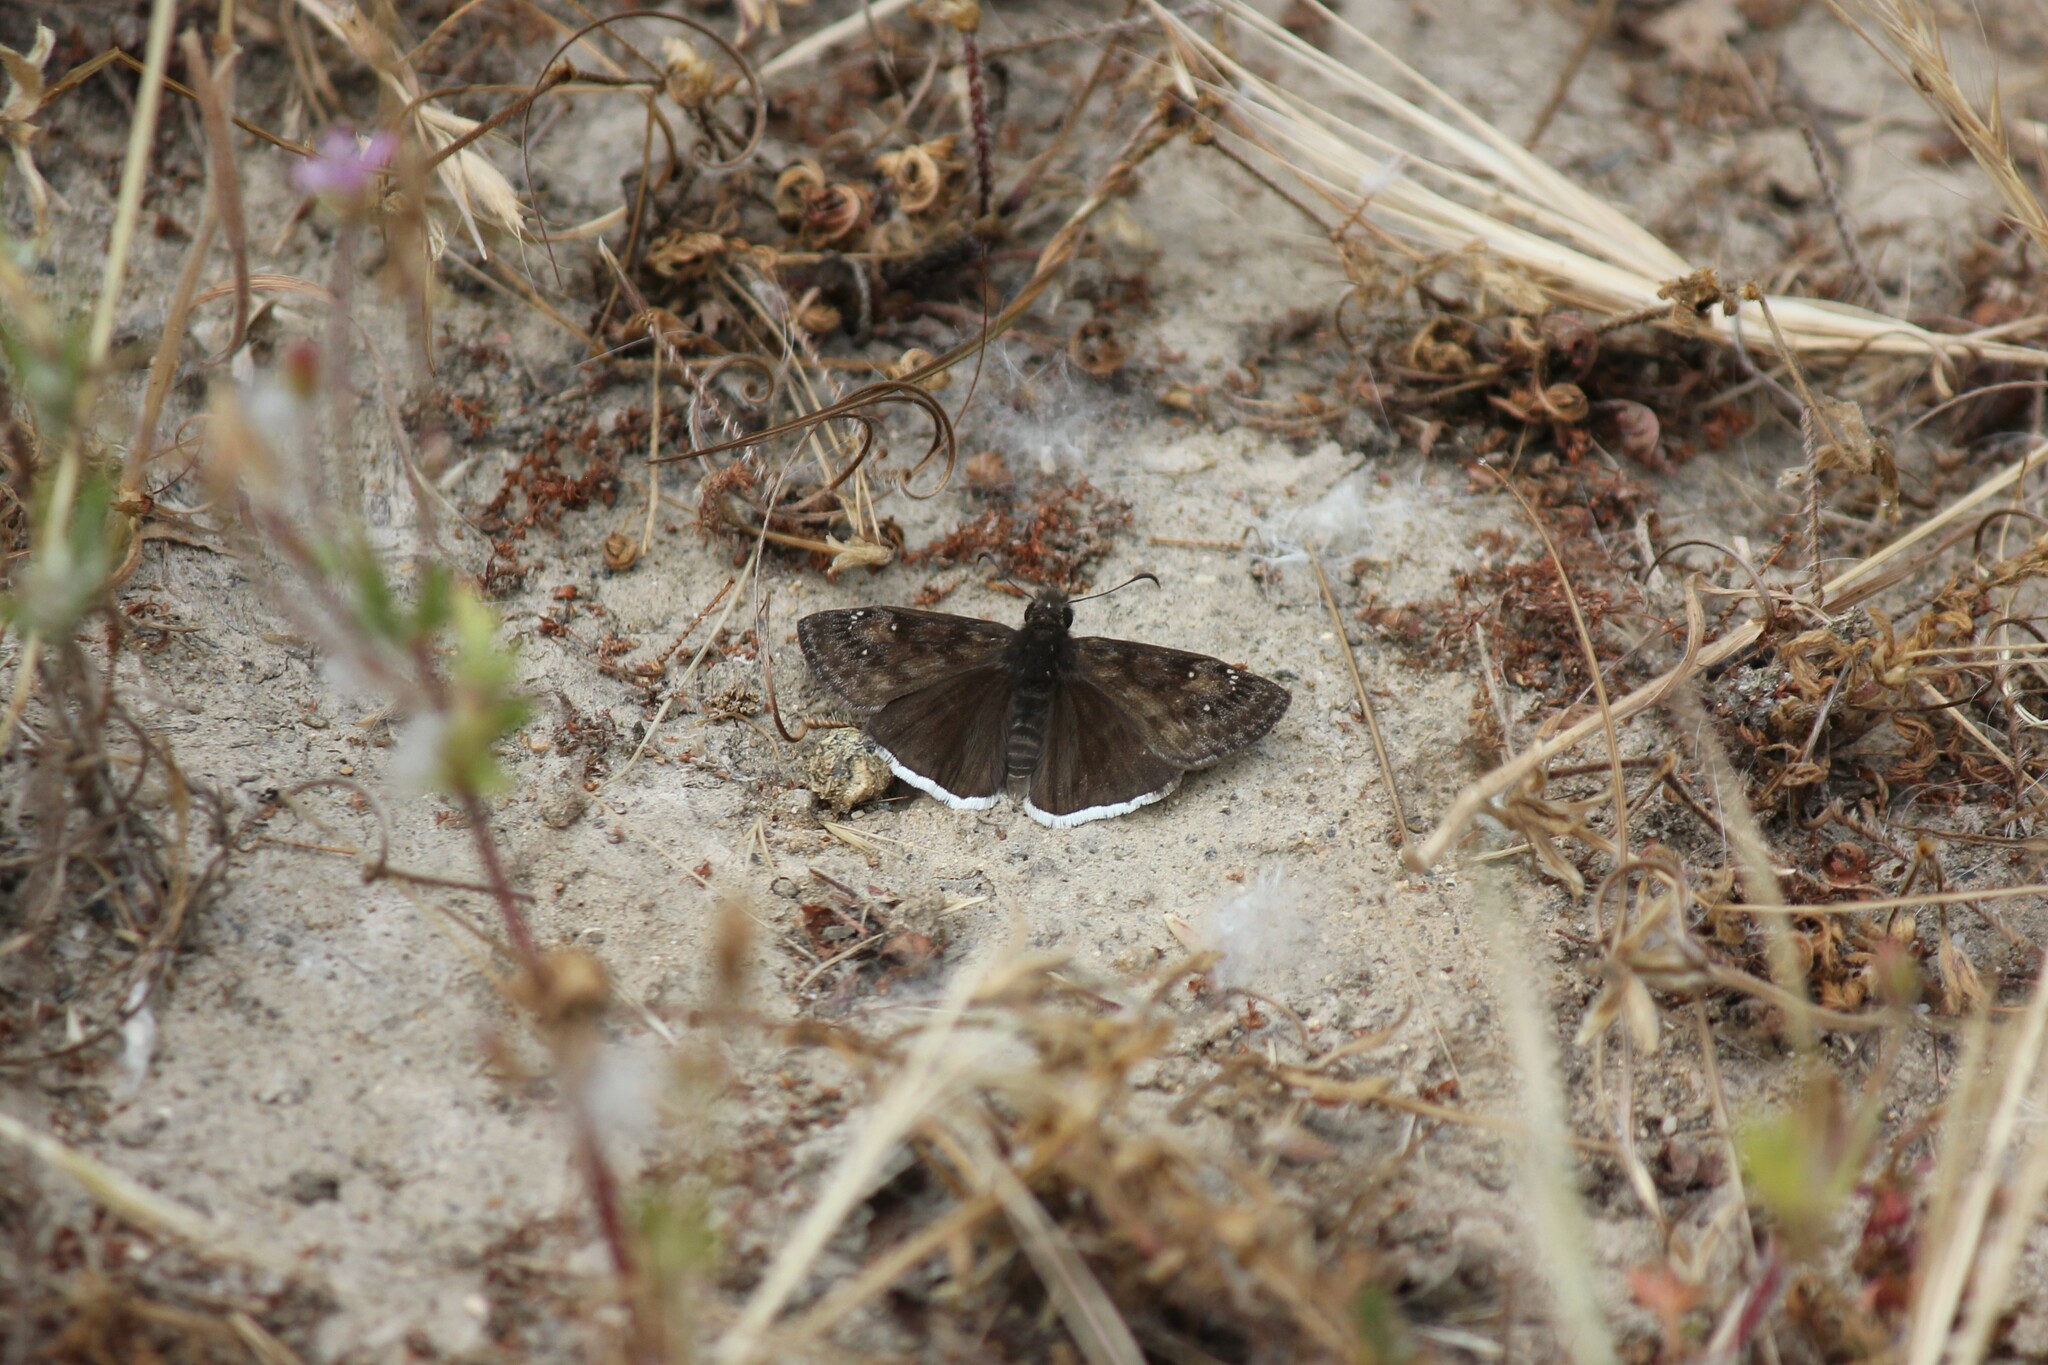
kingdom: Animalia
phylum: Arthropoda
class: Insecta
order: Lepidoptera
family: Hesperiidae
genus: Erynnis
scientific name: Erynnis tristis
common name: Mournful duskywing
